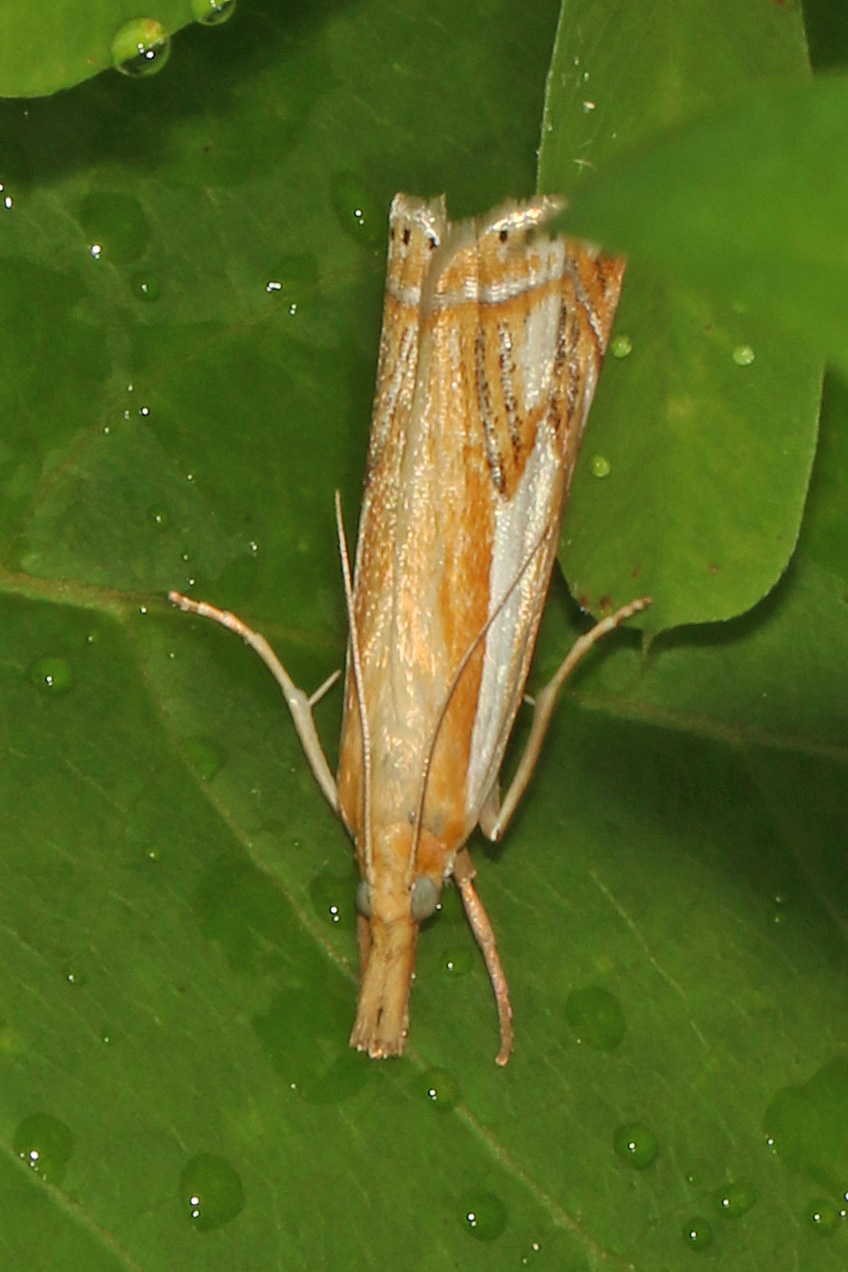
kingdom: Animalia
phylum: Arthropoda
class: Insecta
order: Lepidoptera
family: Crambidae
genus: Crambus
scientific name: Crambus agitatellus
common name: Double-banded grass-veneer
